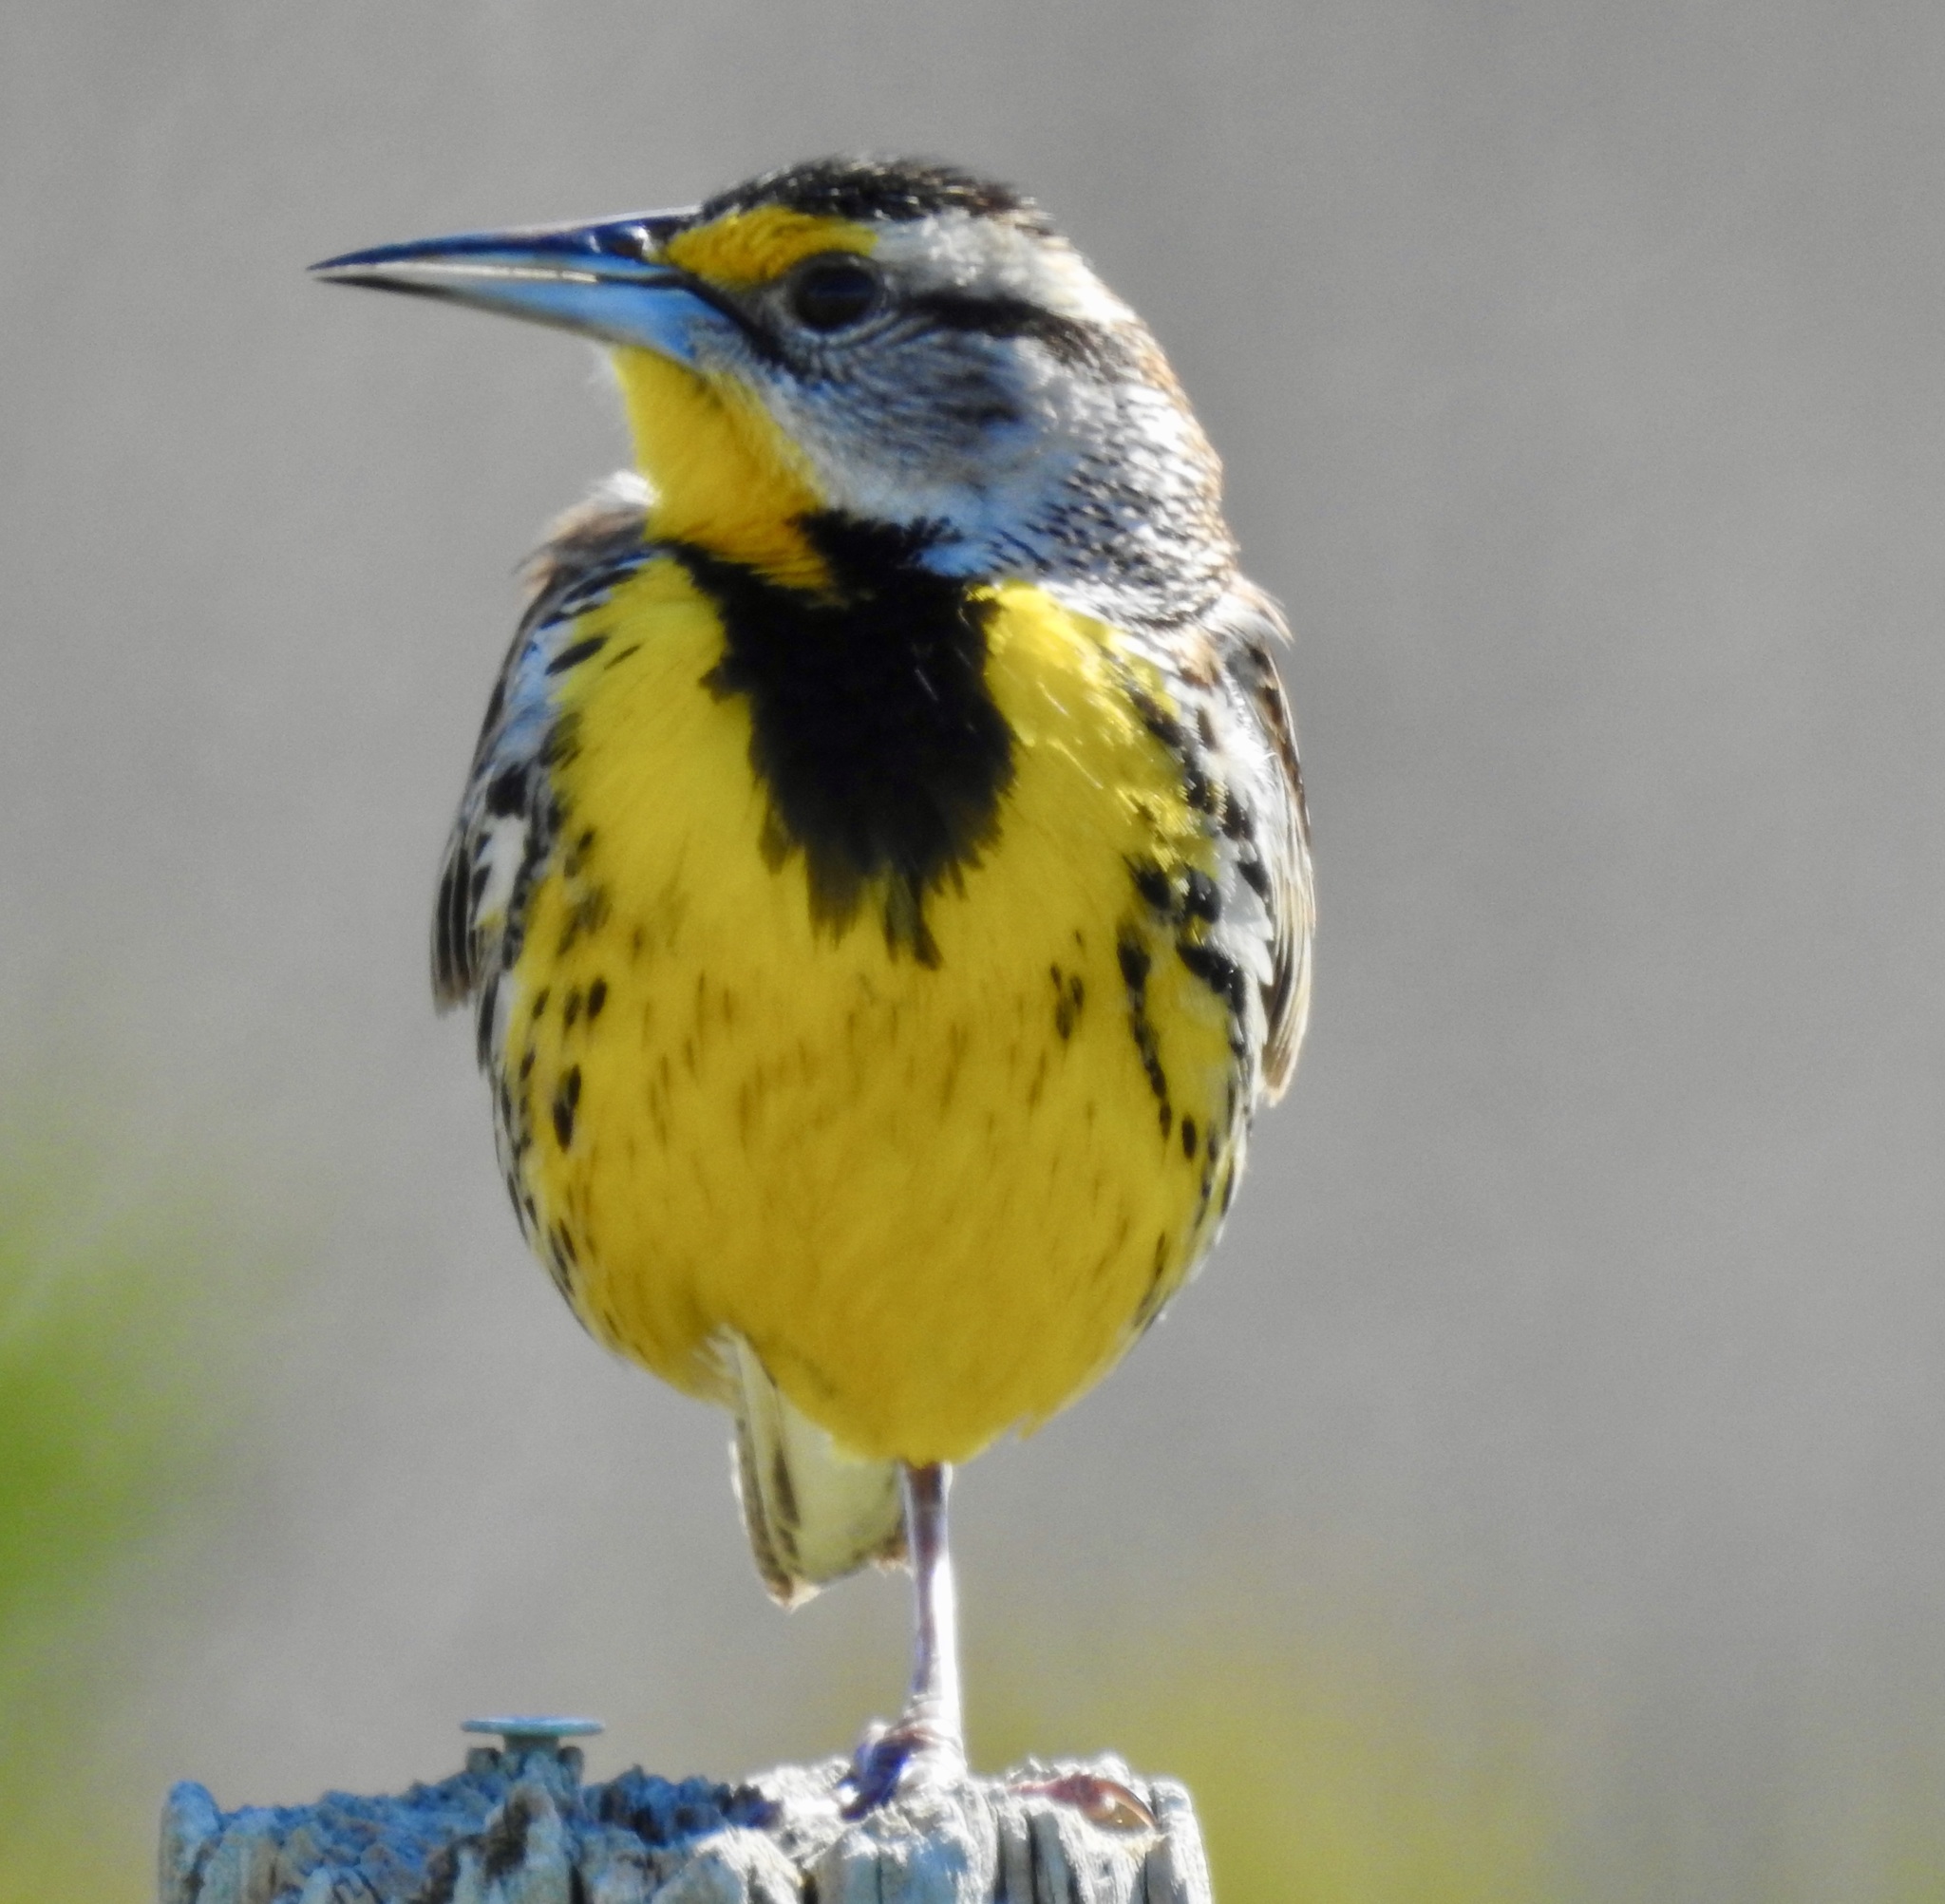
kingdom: Animalia
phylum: Chordata
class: Aves
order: Passeriformes
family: Icteridae
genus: Sturnella
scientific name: Sturnella magna
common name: Eastern meadowlark
